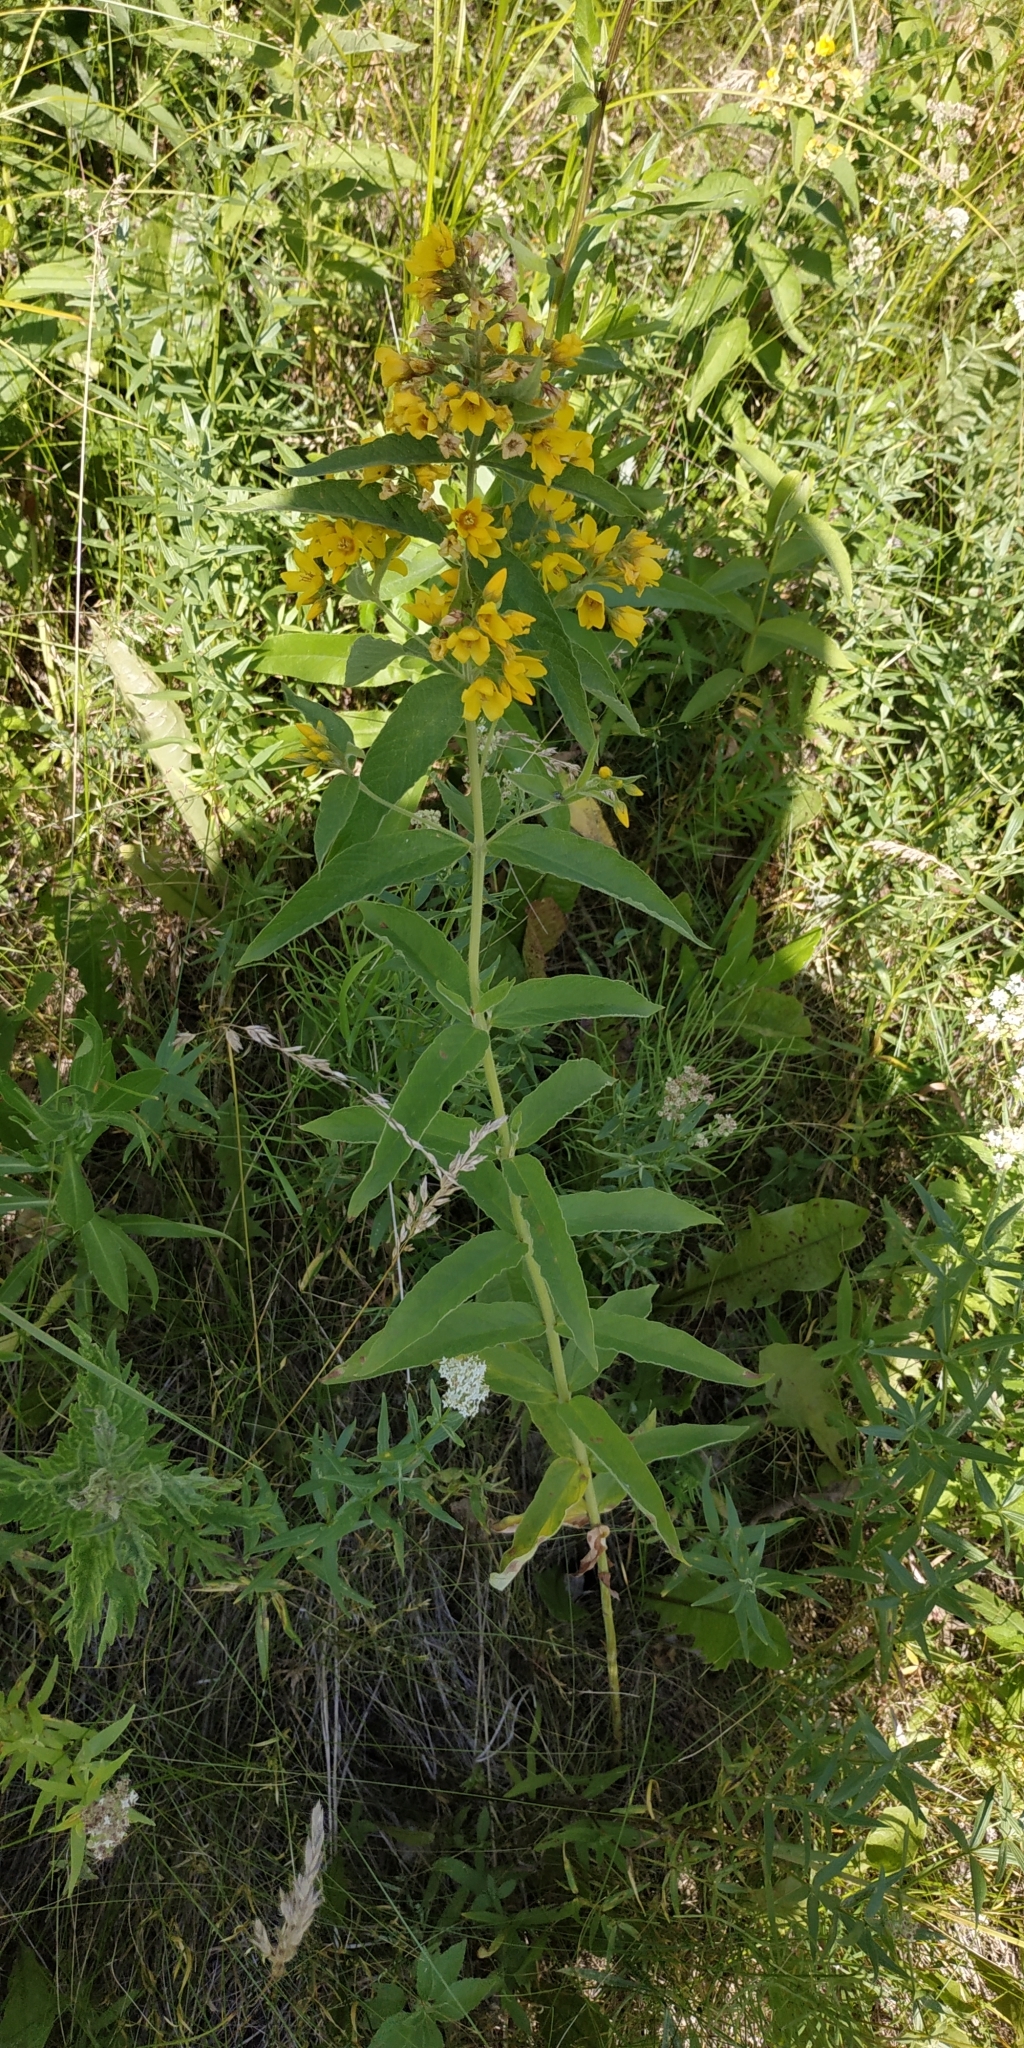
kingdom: Plantae
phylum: Tracheophyta
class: Magnoliopsida
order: Ericales
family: Primulaceae
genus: Lysimachia
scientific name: Lysimachia vulgaris
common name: Yellow loosestrife
